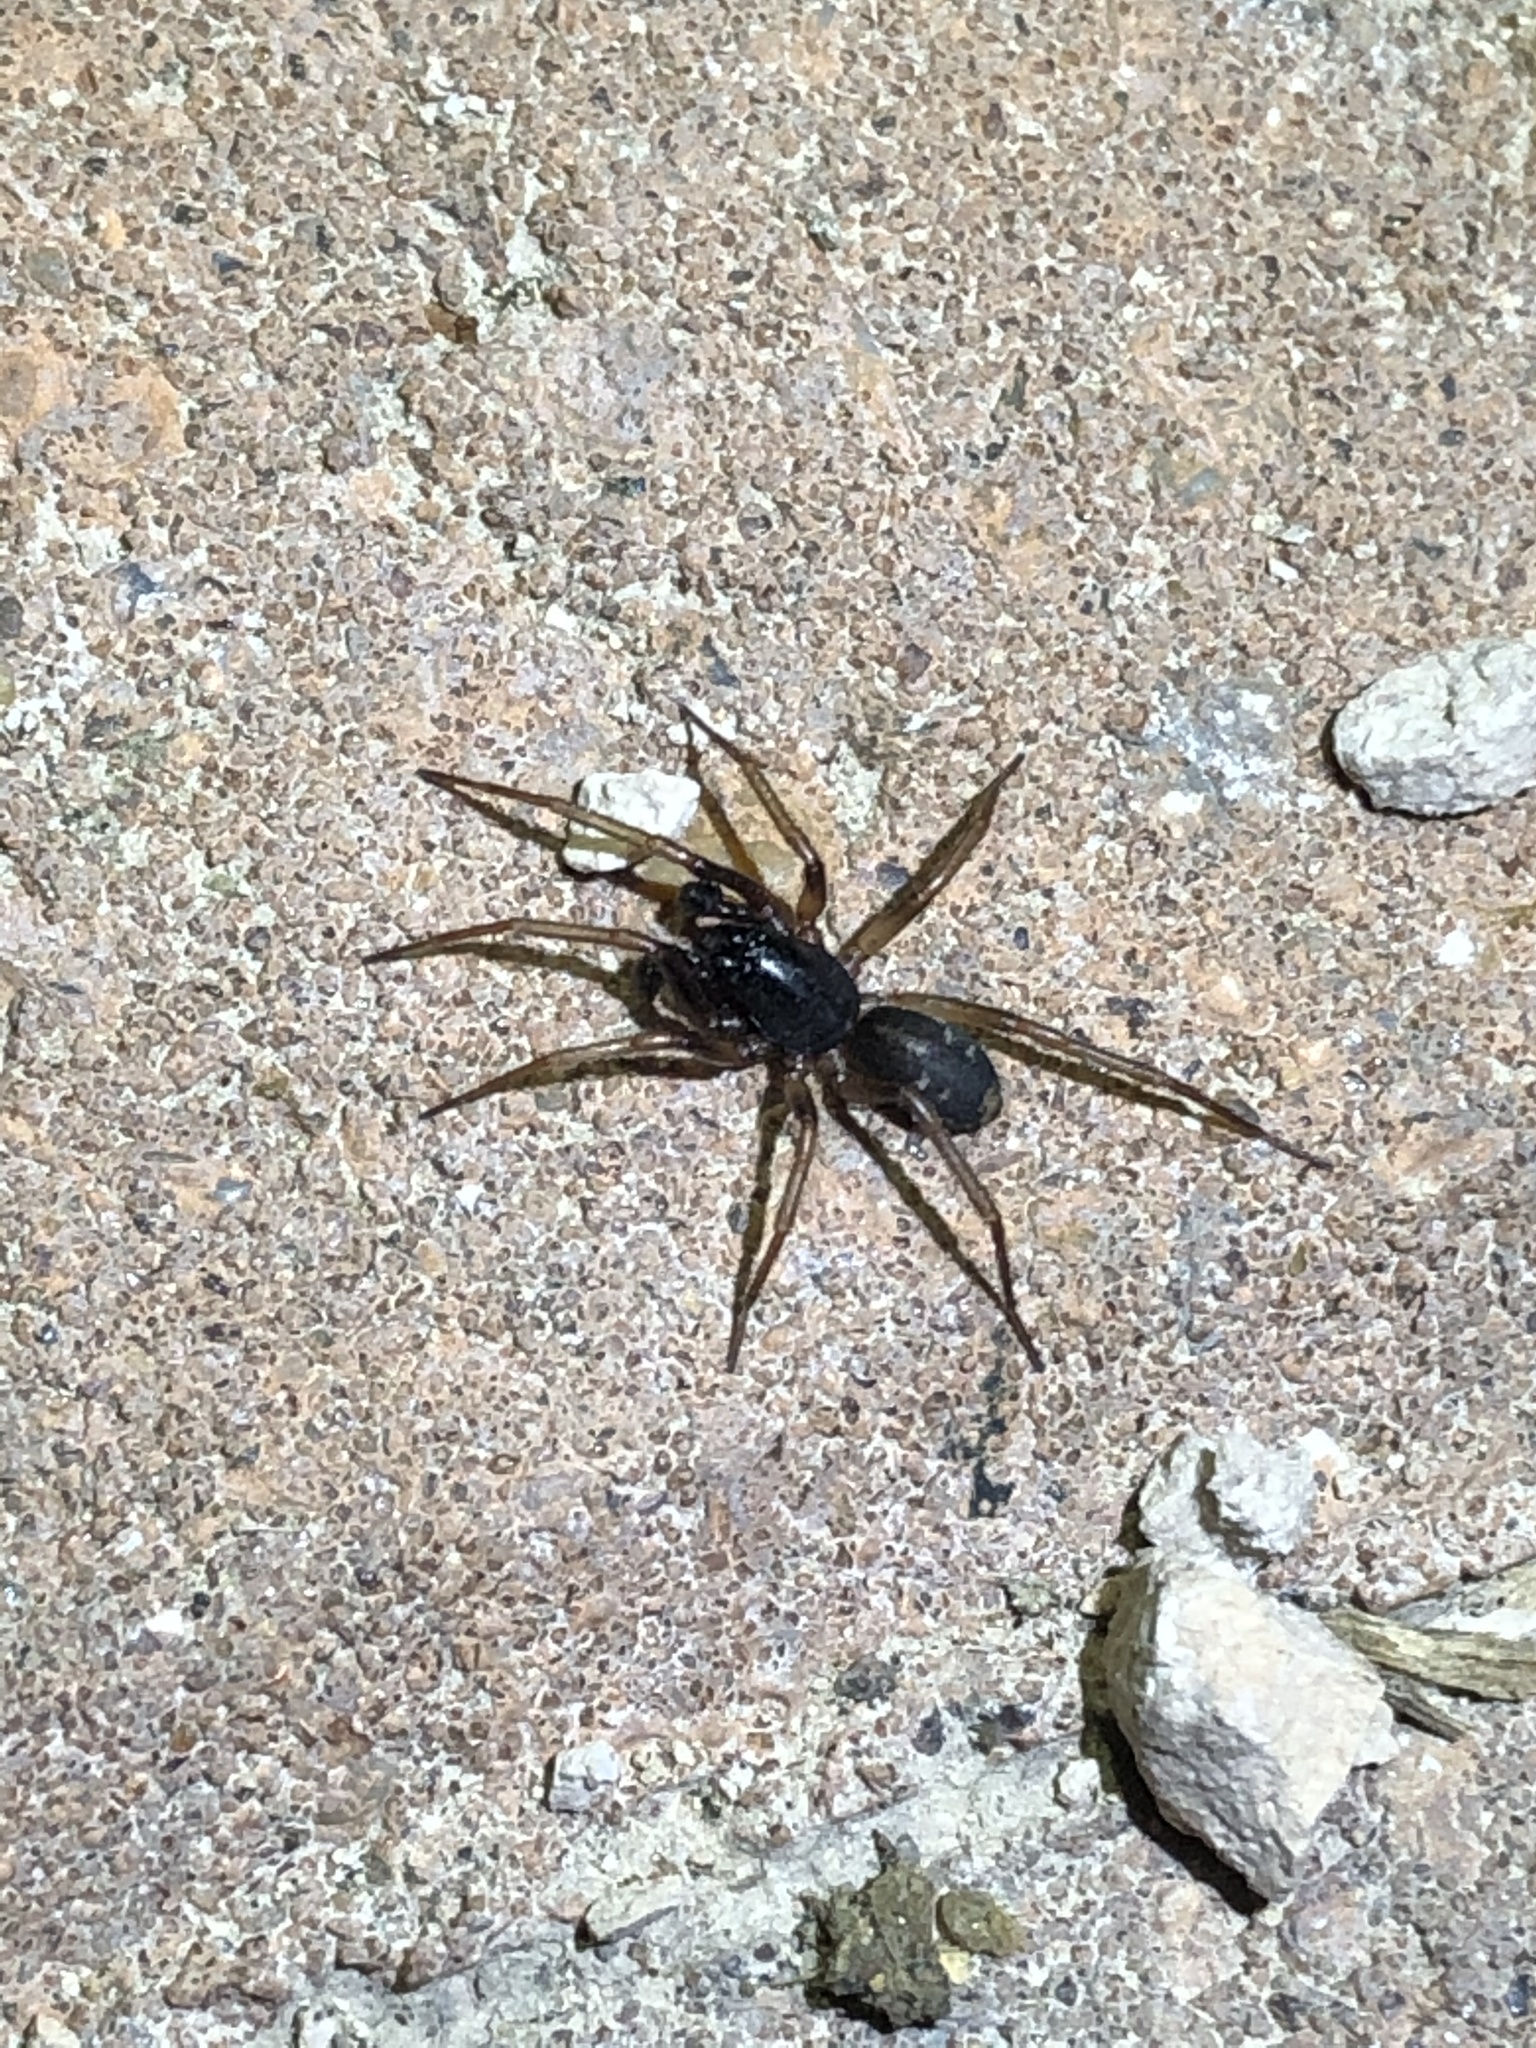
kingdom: Animalia
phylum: Arthropoda
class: Arachnida
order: Araneae
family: Corinnidae
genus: Falconina
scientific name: Falconina gracilis
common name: Antmimic spider
